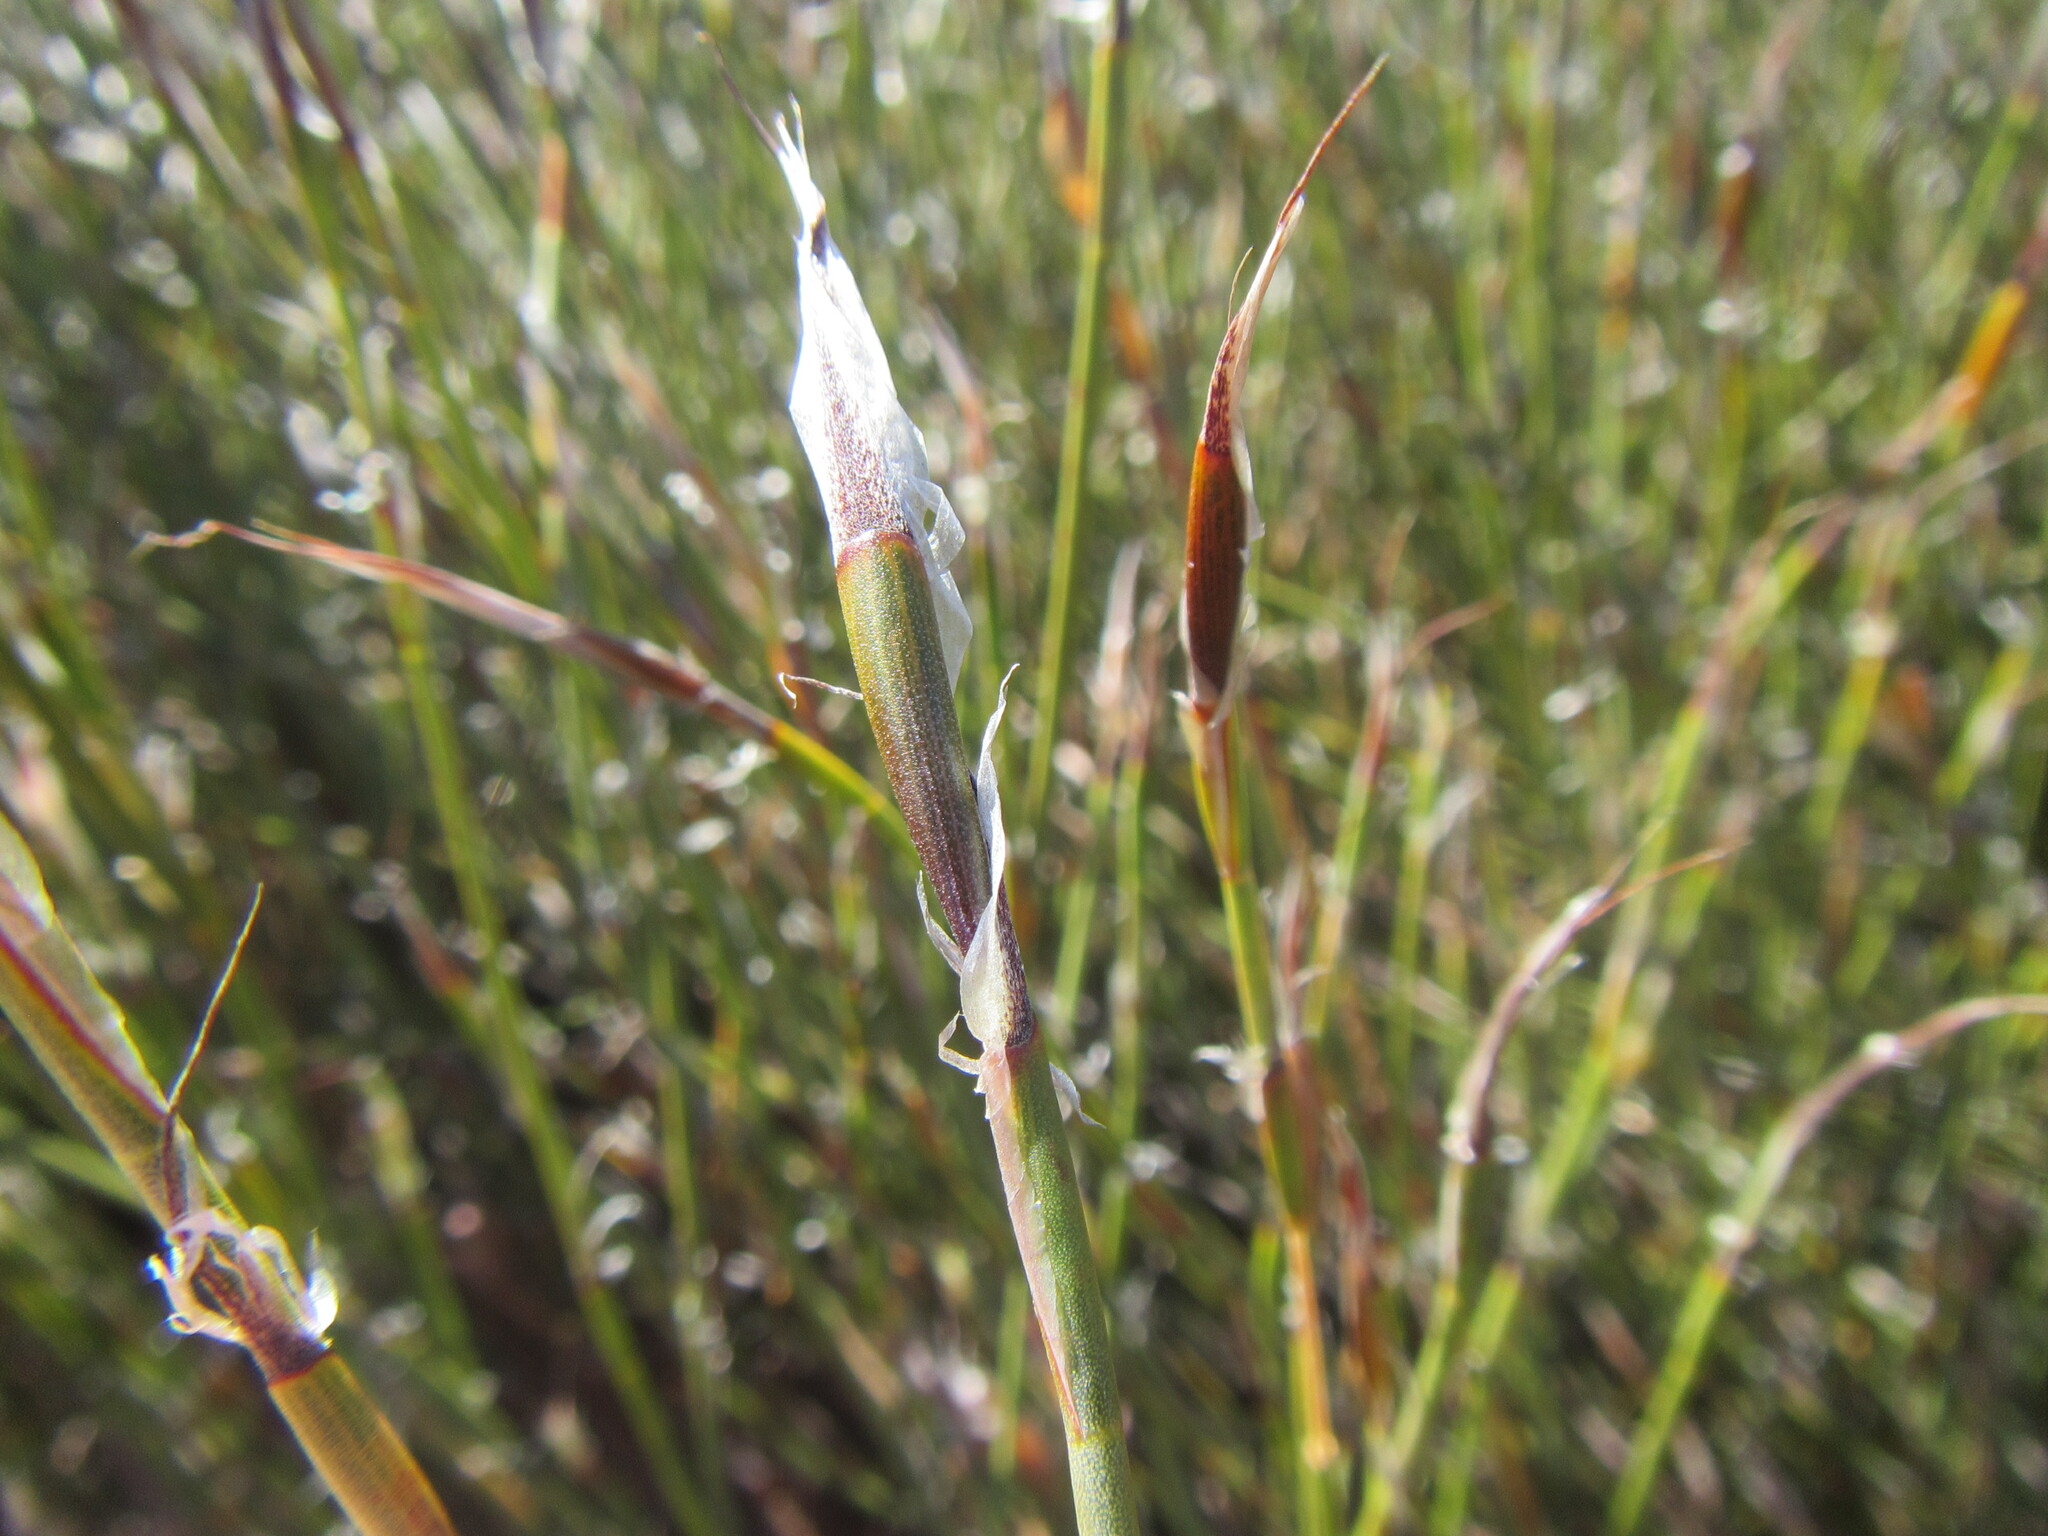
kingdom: Plantae
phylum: Tracheophyta
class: Liliopsida
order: Poales
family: Restionaceae
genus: Willdenowia
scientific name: Willdenowia teres
